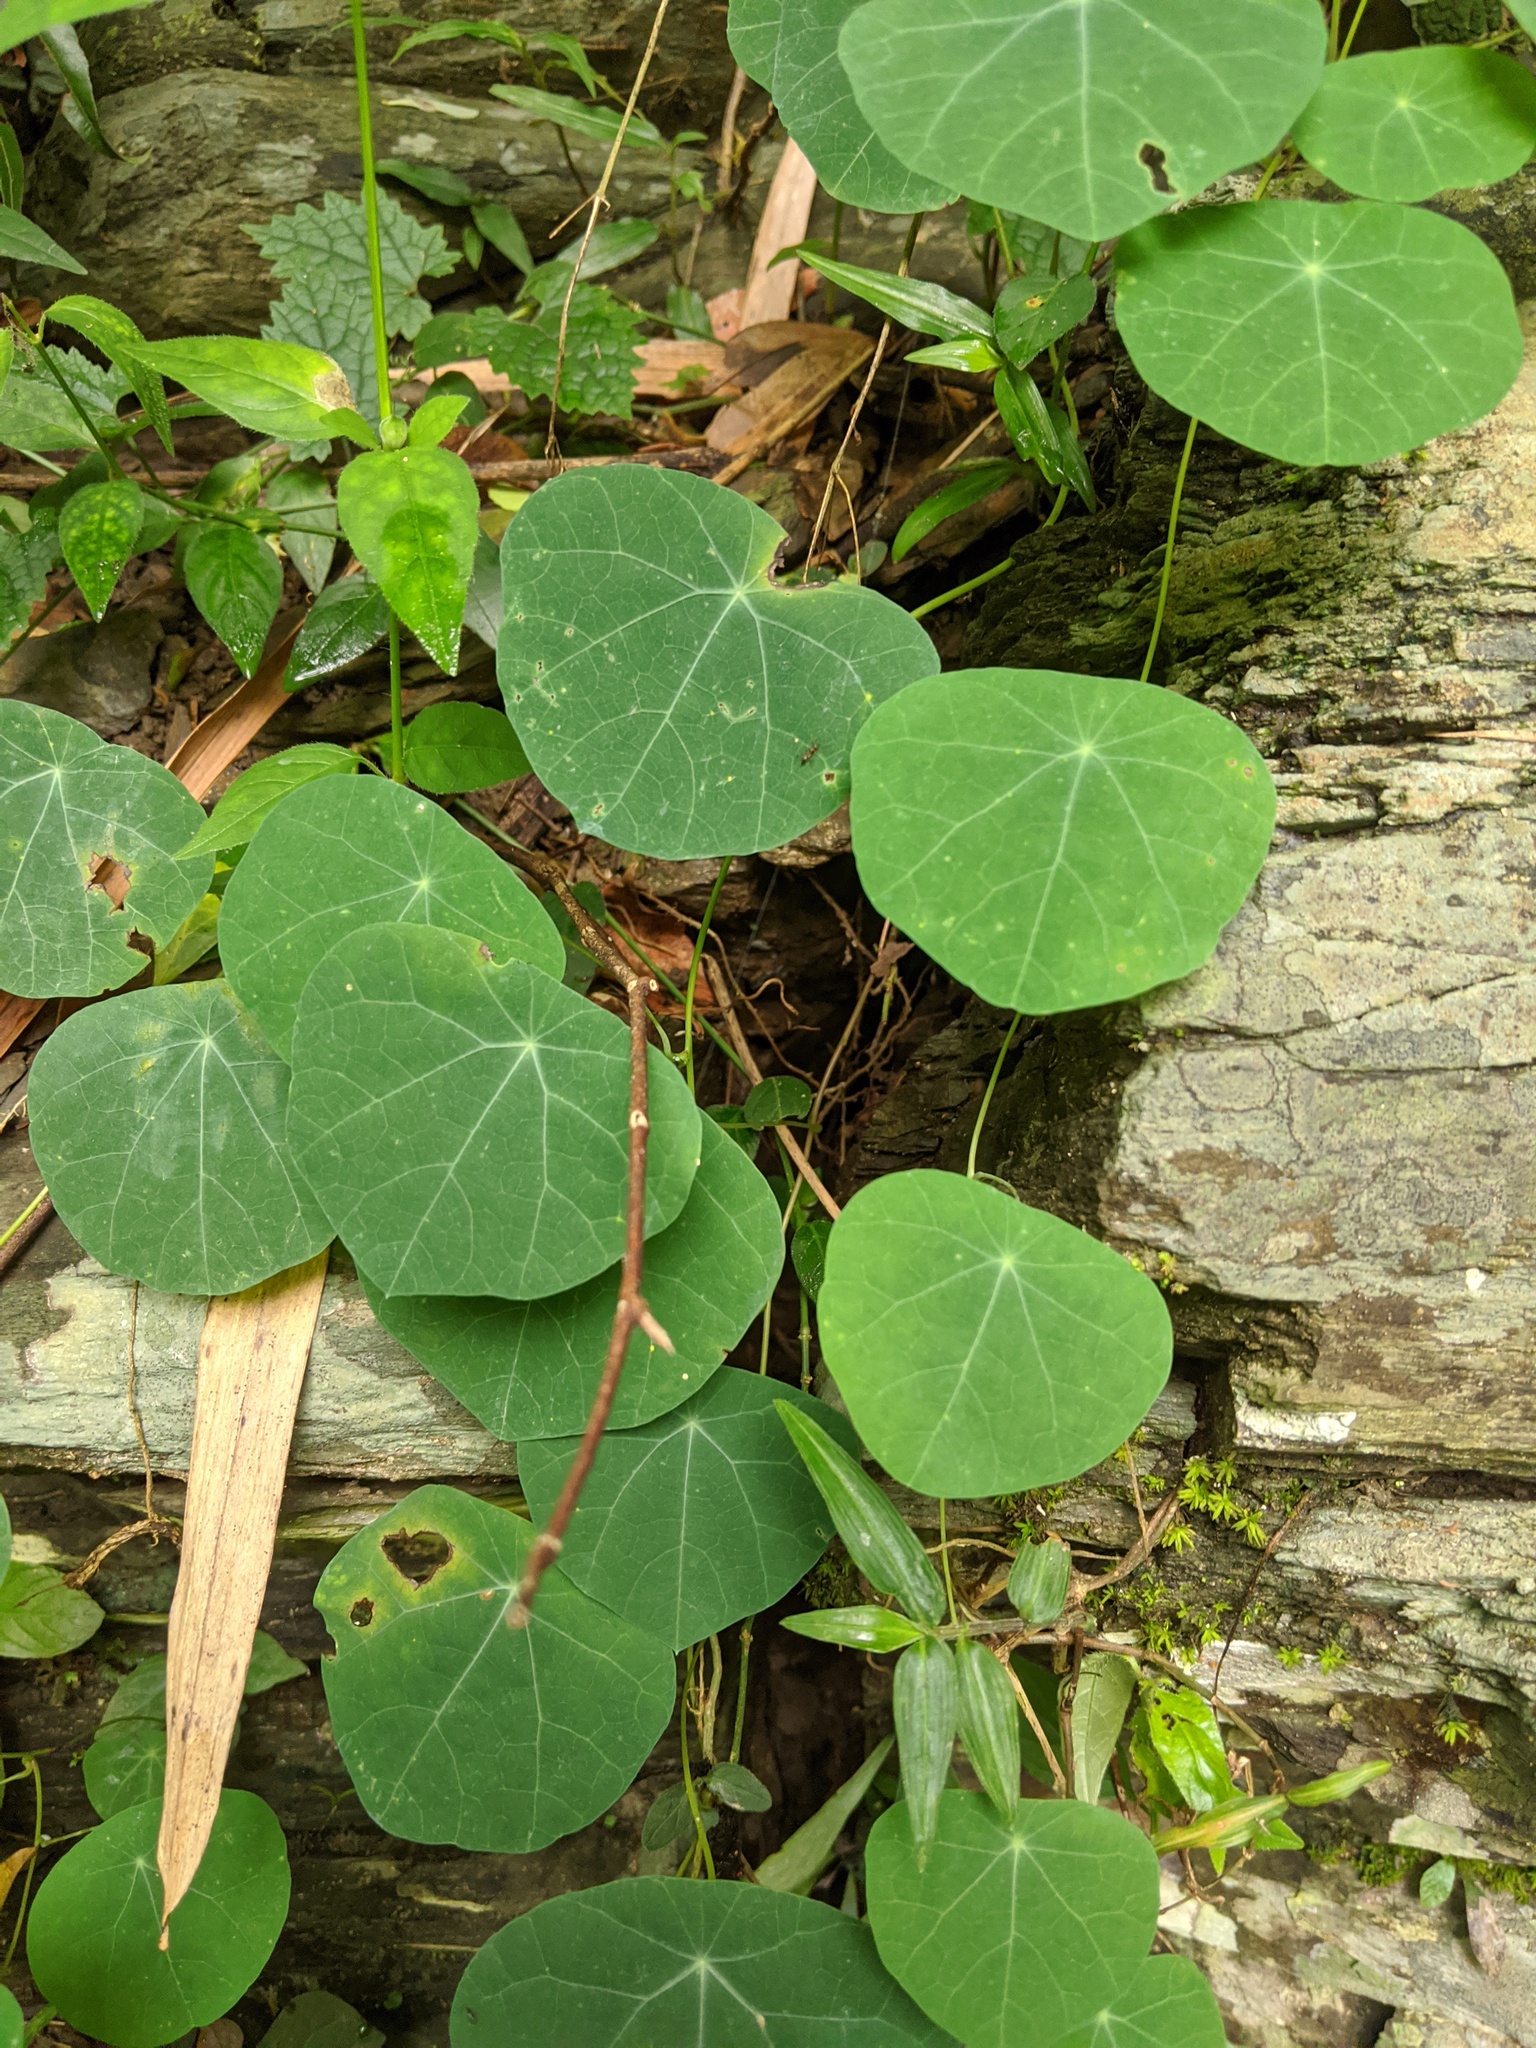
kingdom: Plantae
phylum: Tracheophyta
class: Magnoliopsida
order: Ranunculales
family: Menispermaceae
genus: Stephania
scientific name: Stephania cephalantha
